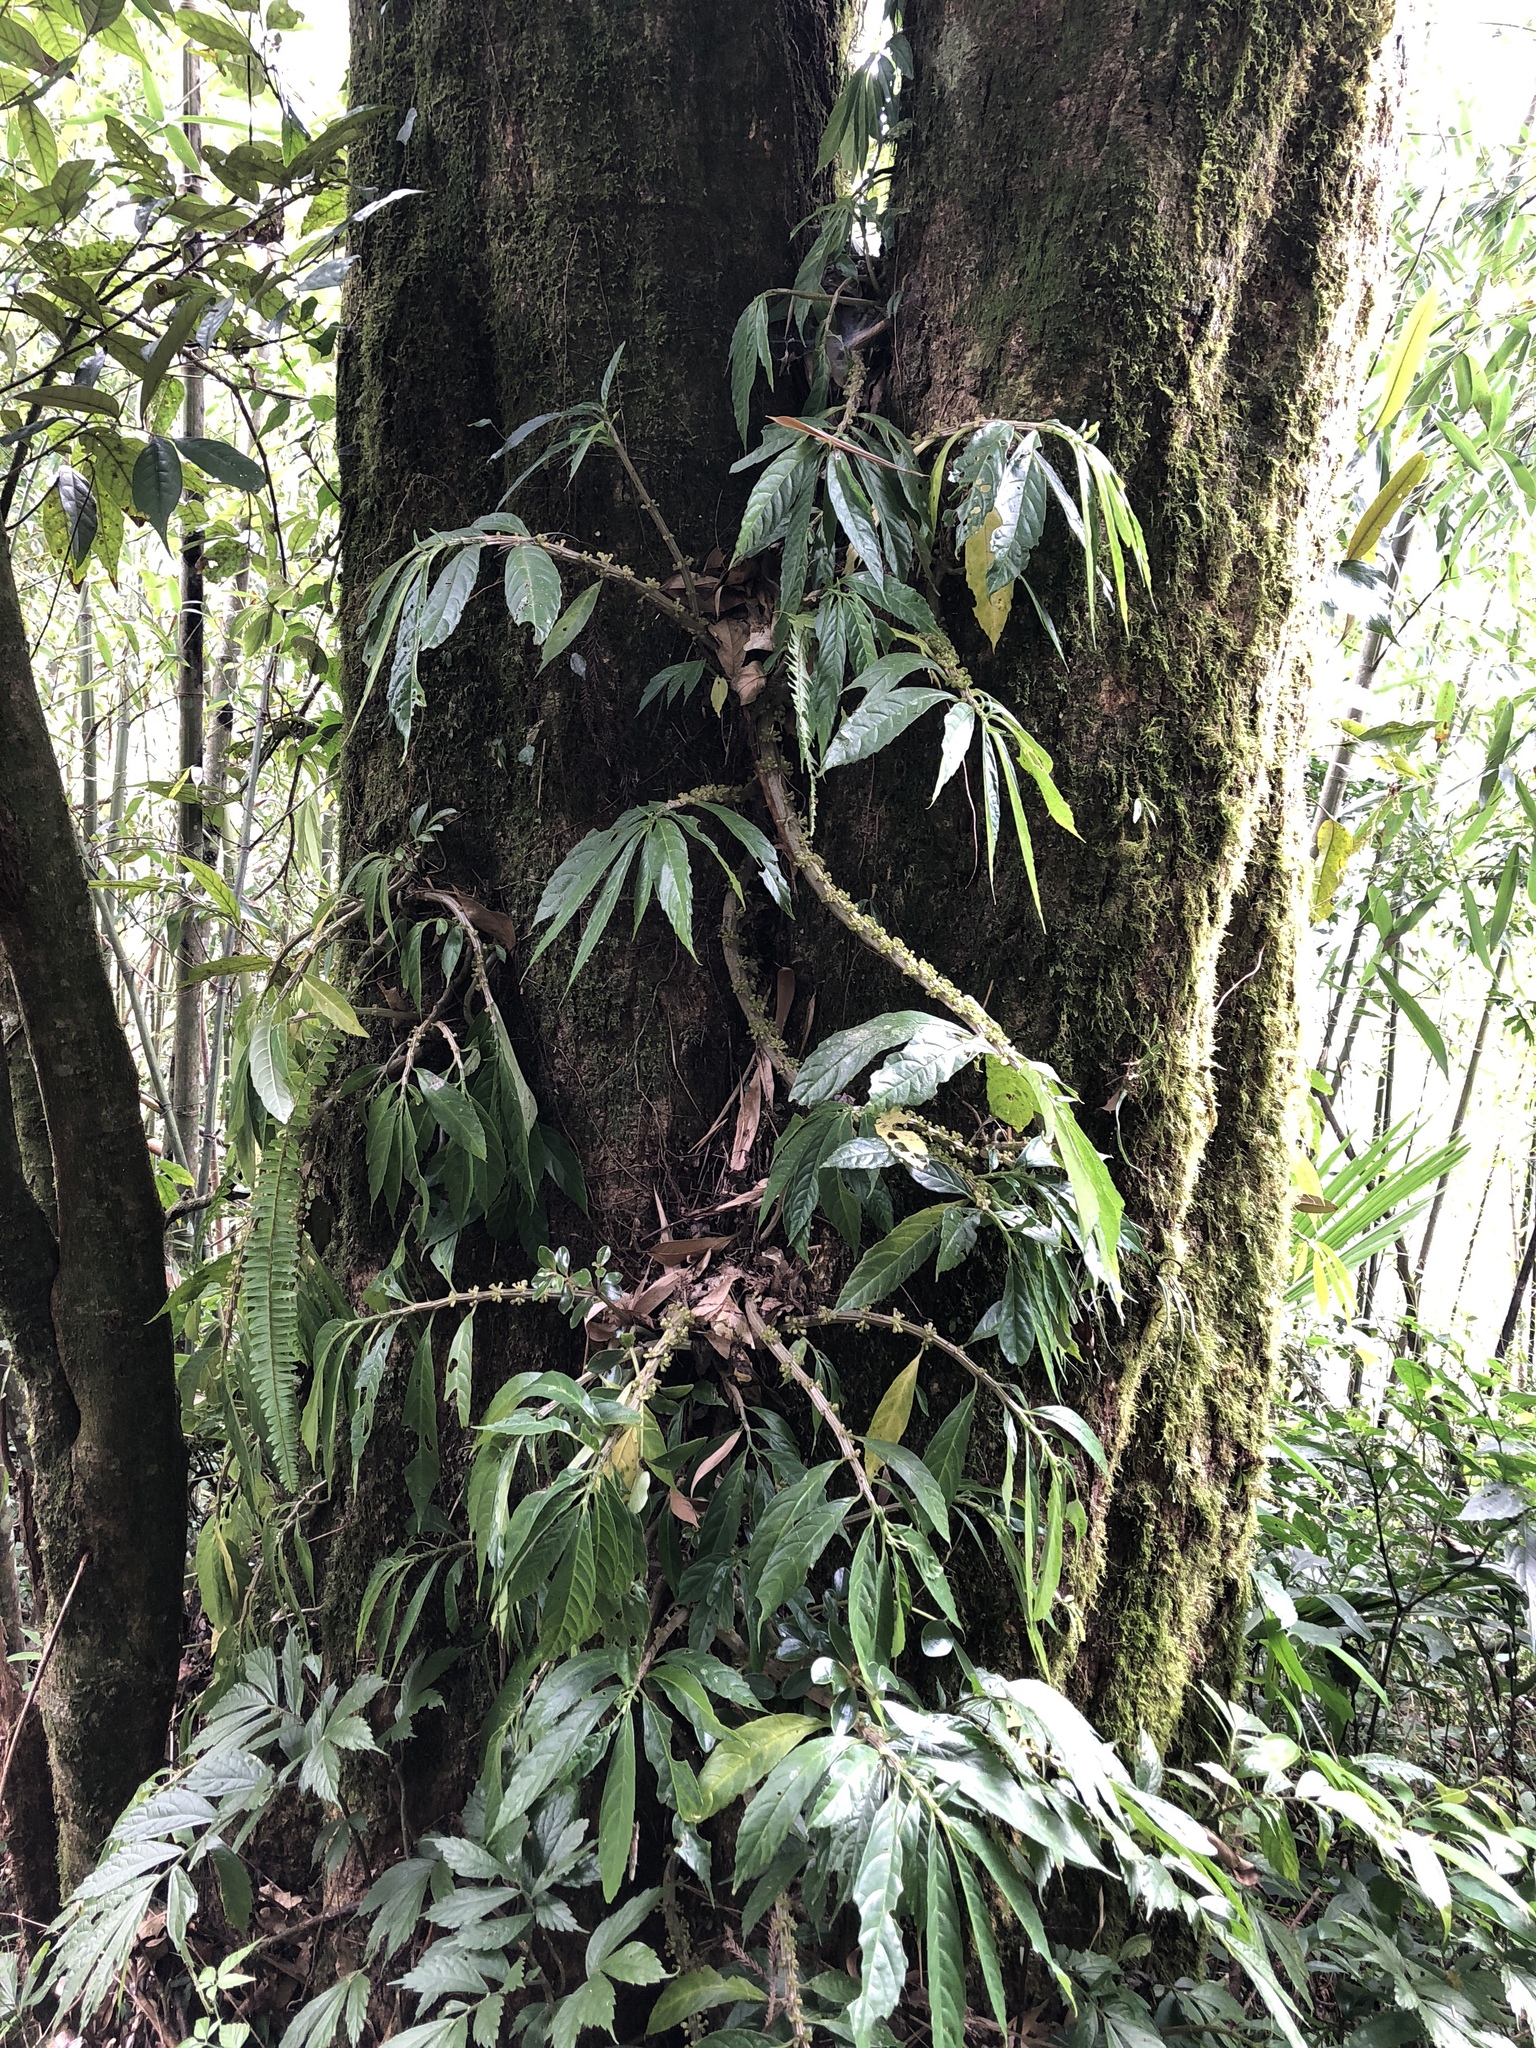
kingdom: Plantae
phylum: Tracheophyta
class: Magnoliopsida
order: Rosales
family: Urticaceae
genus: Procris
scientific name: Procris
